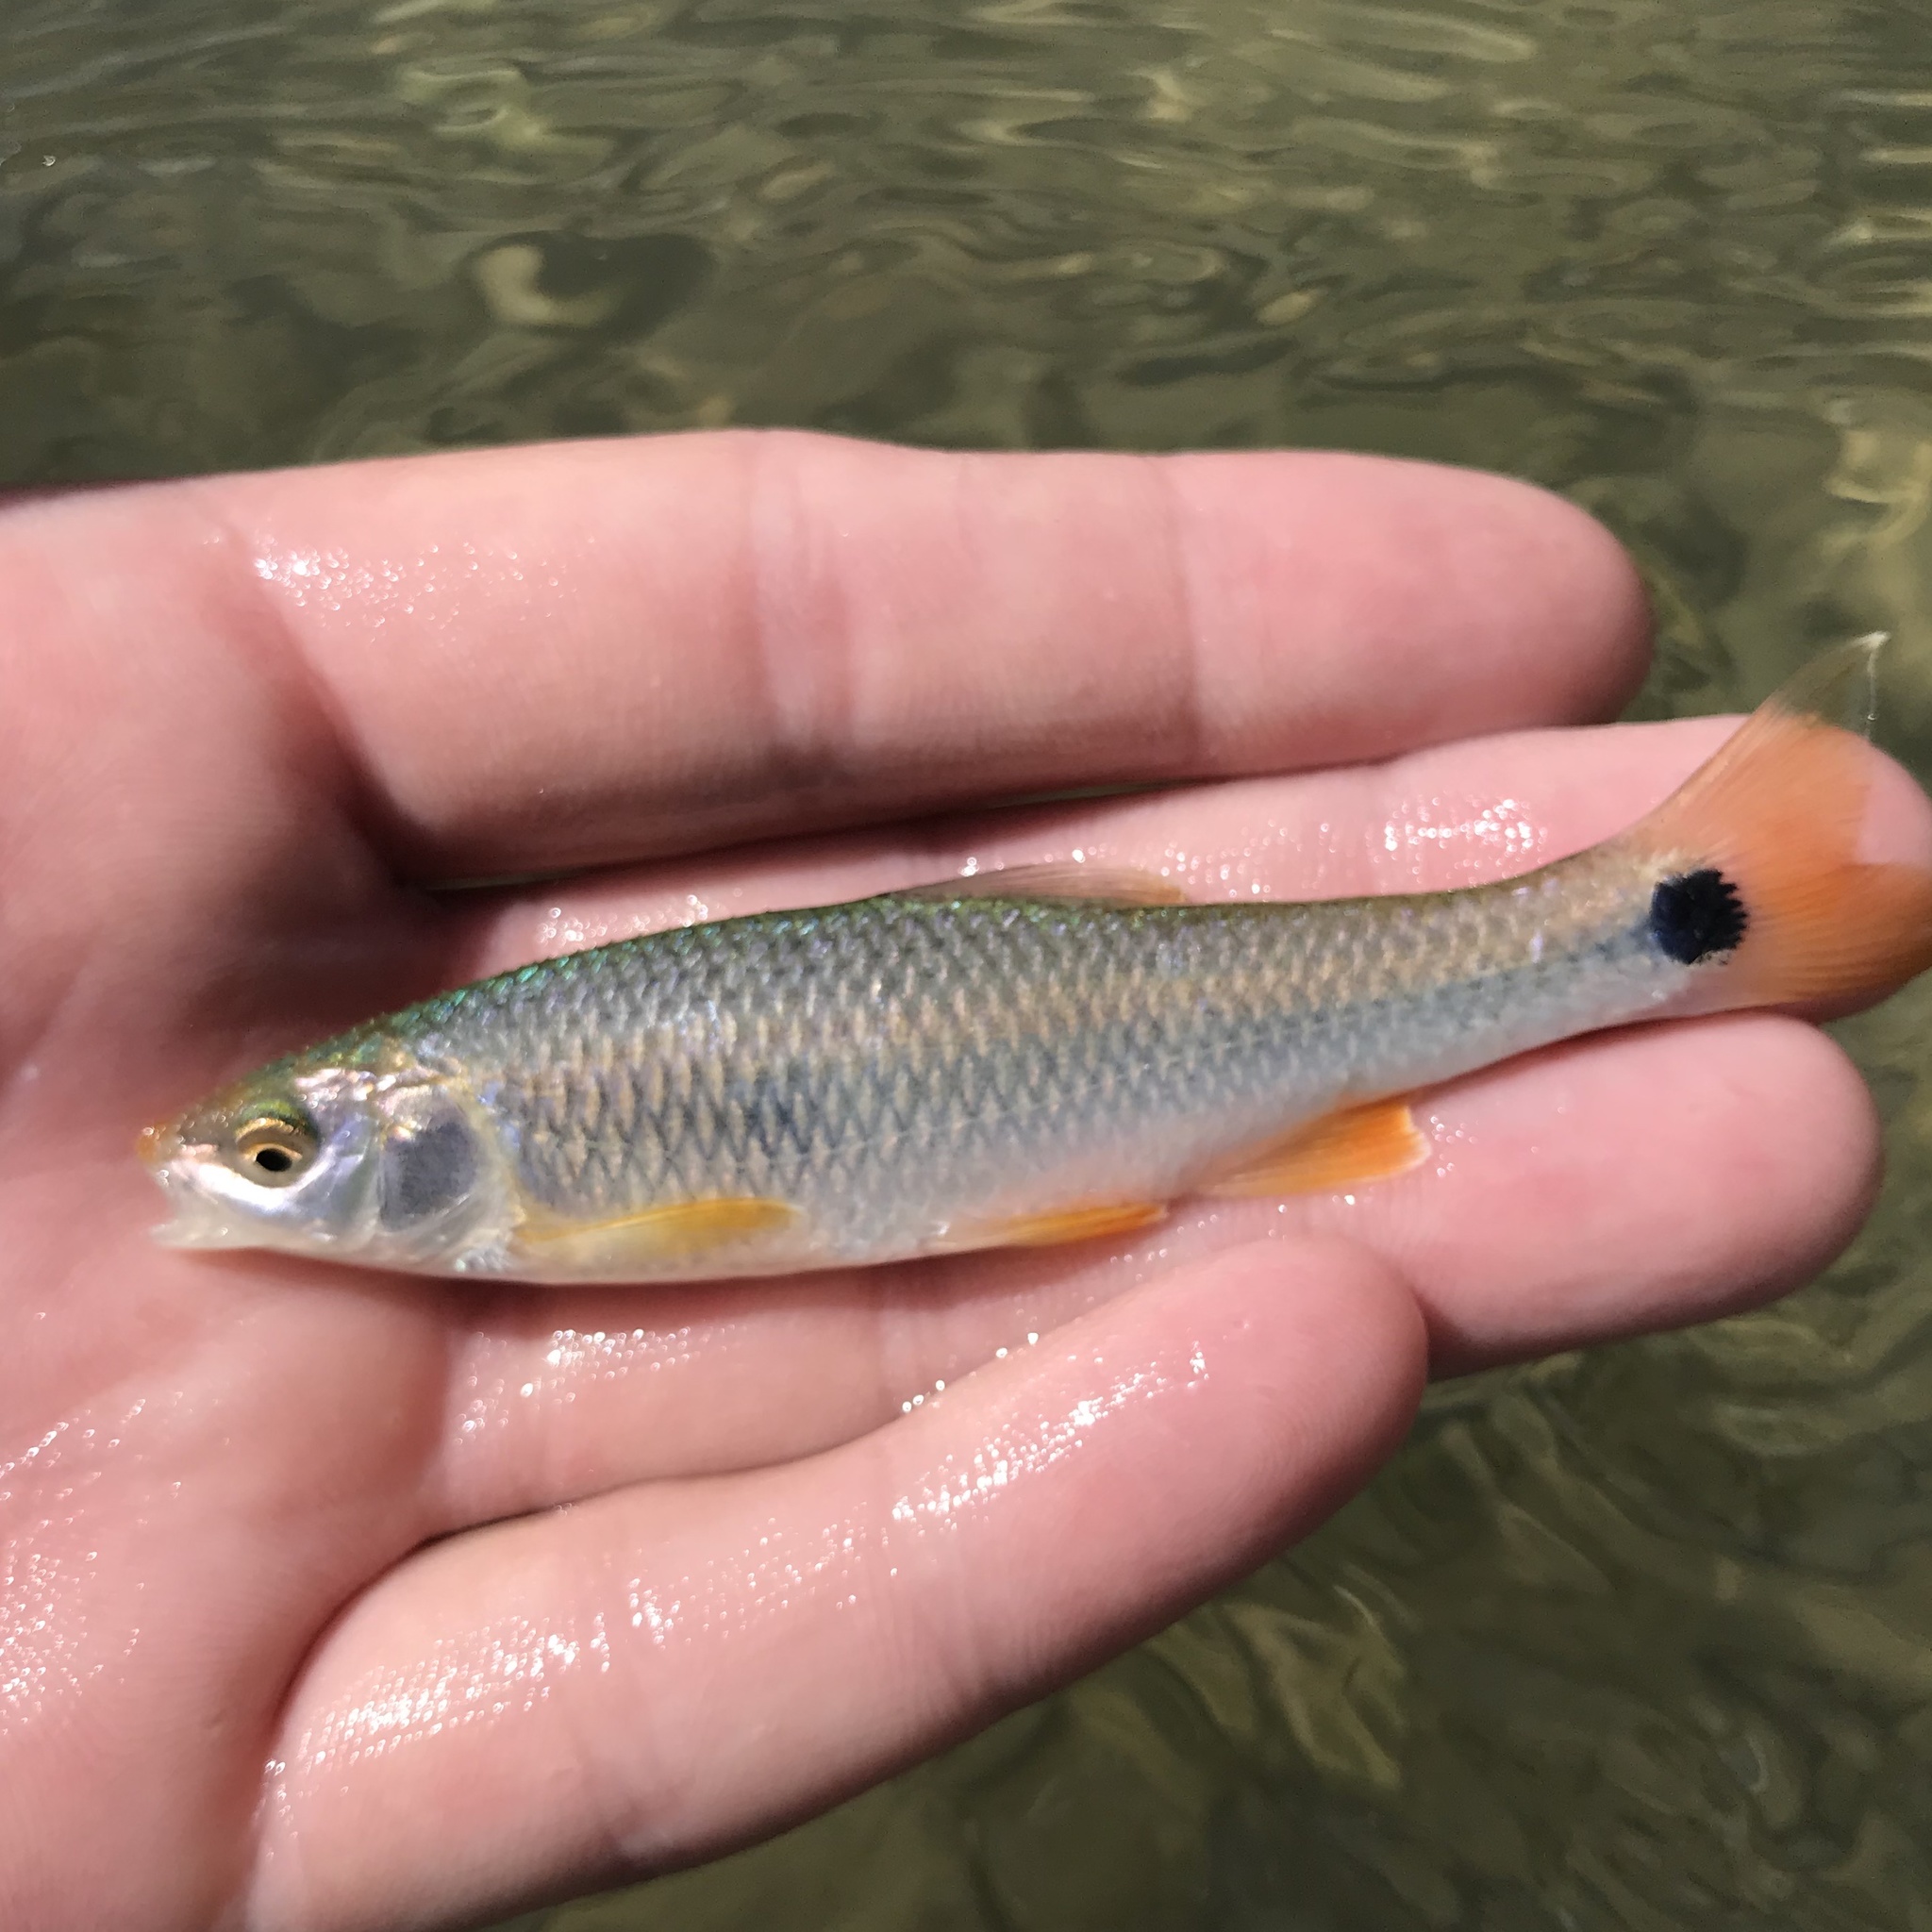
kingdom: Animalia
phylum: Chordata
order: Cypriniformes
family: Cyprinidae
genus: Cyprinella
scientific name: Cyprinella venusta
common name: Blacktail shiner
